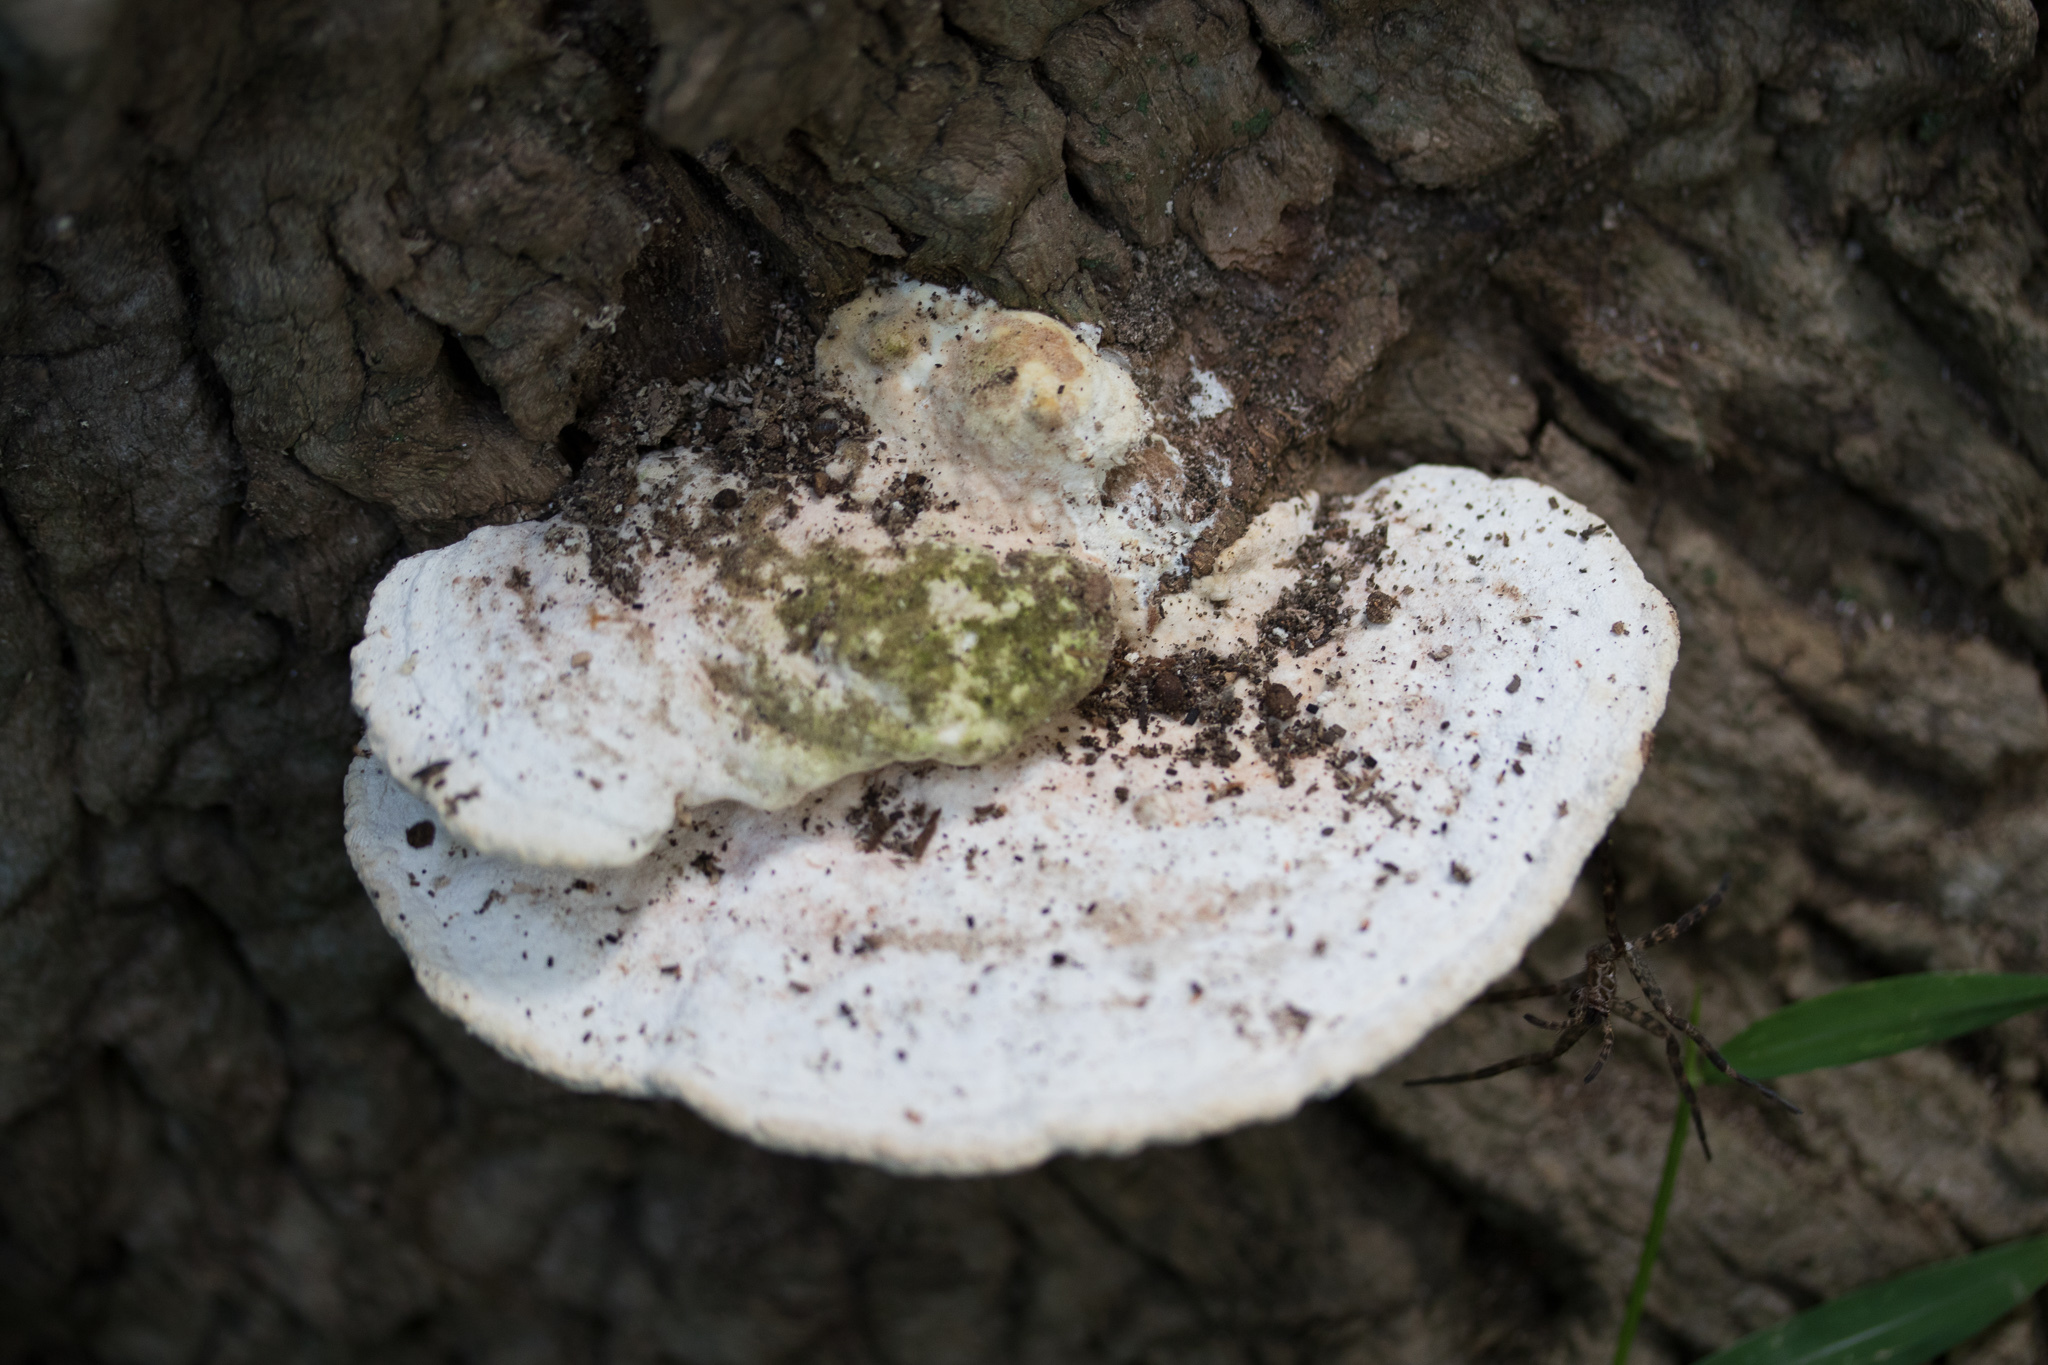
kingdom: Fungi
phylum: Basidiomycota
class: Agaricomycetes
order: Polyporales
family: Polyporaceae
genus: Trametes
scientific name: Trametes gibbosa
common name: Lumpy bracket
